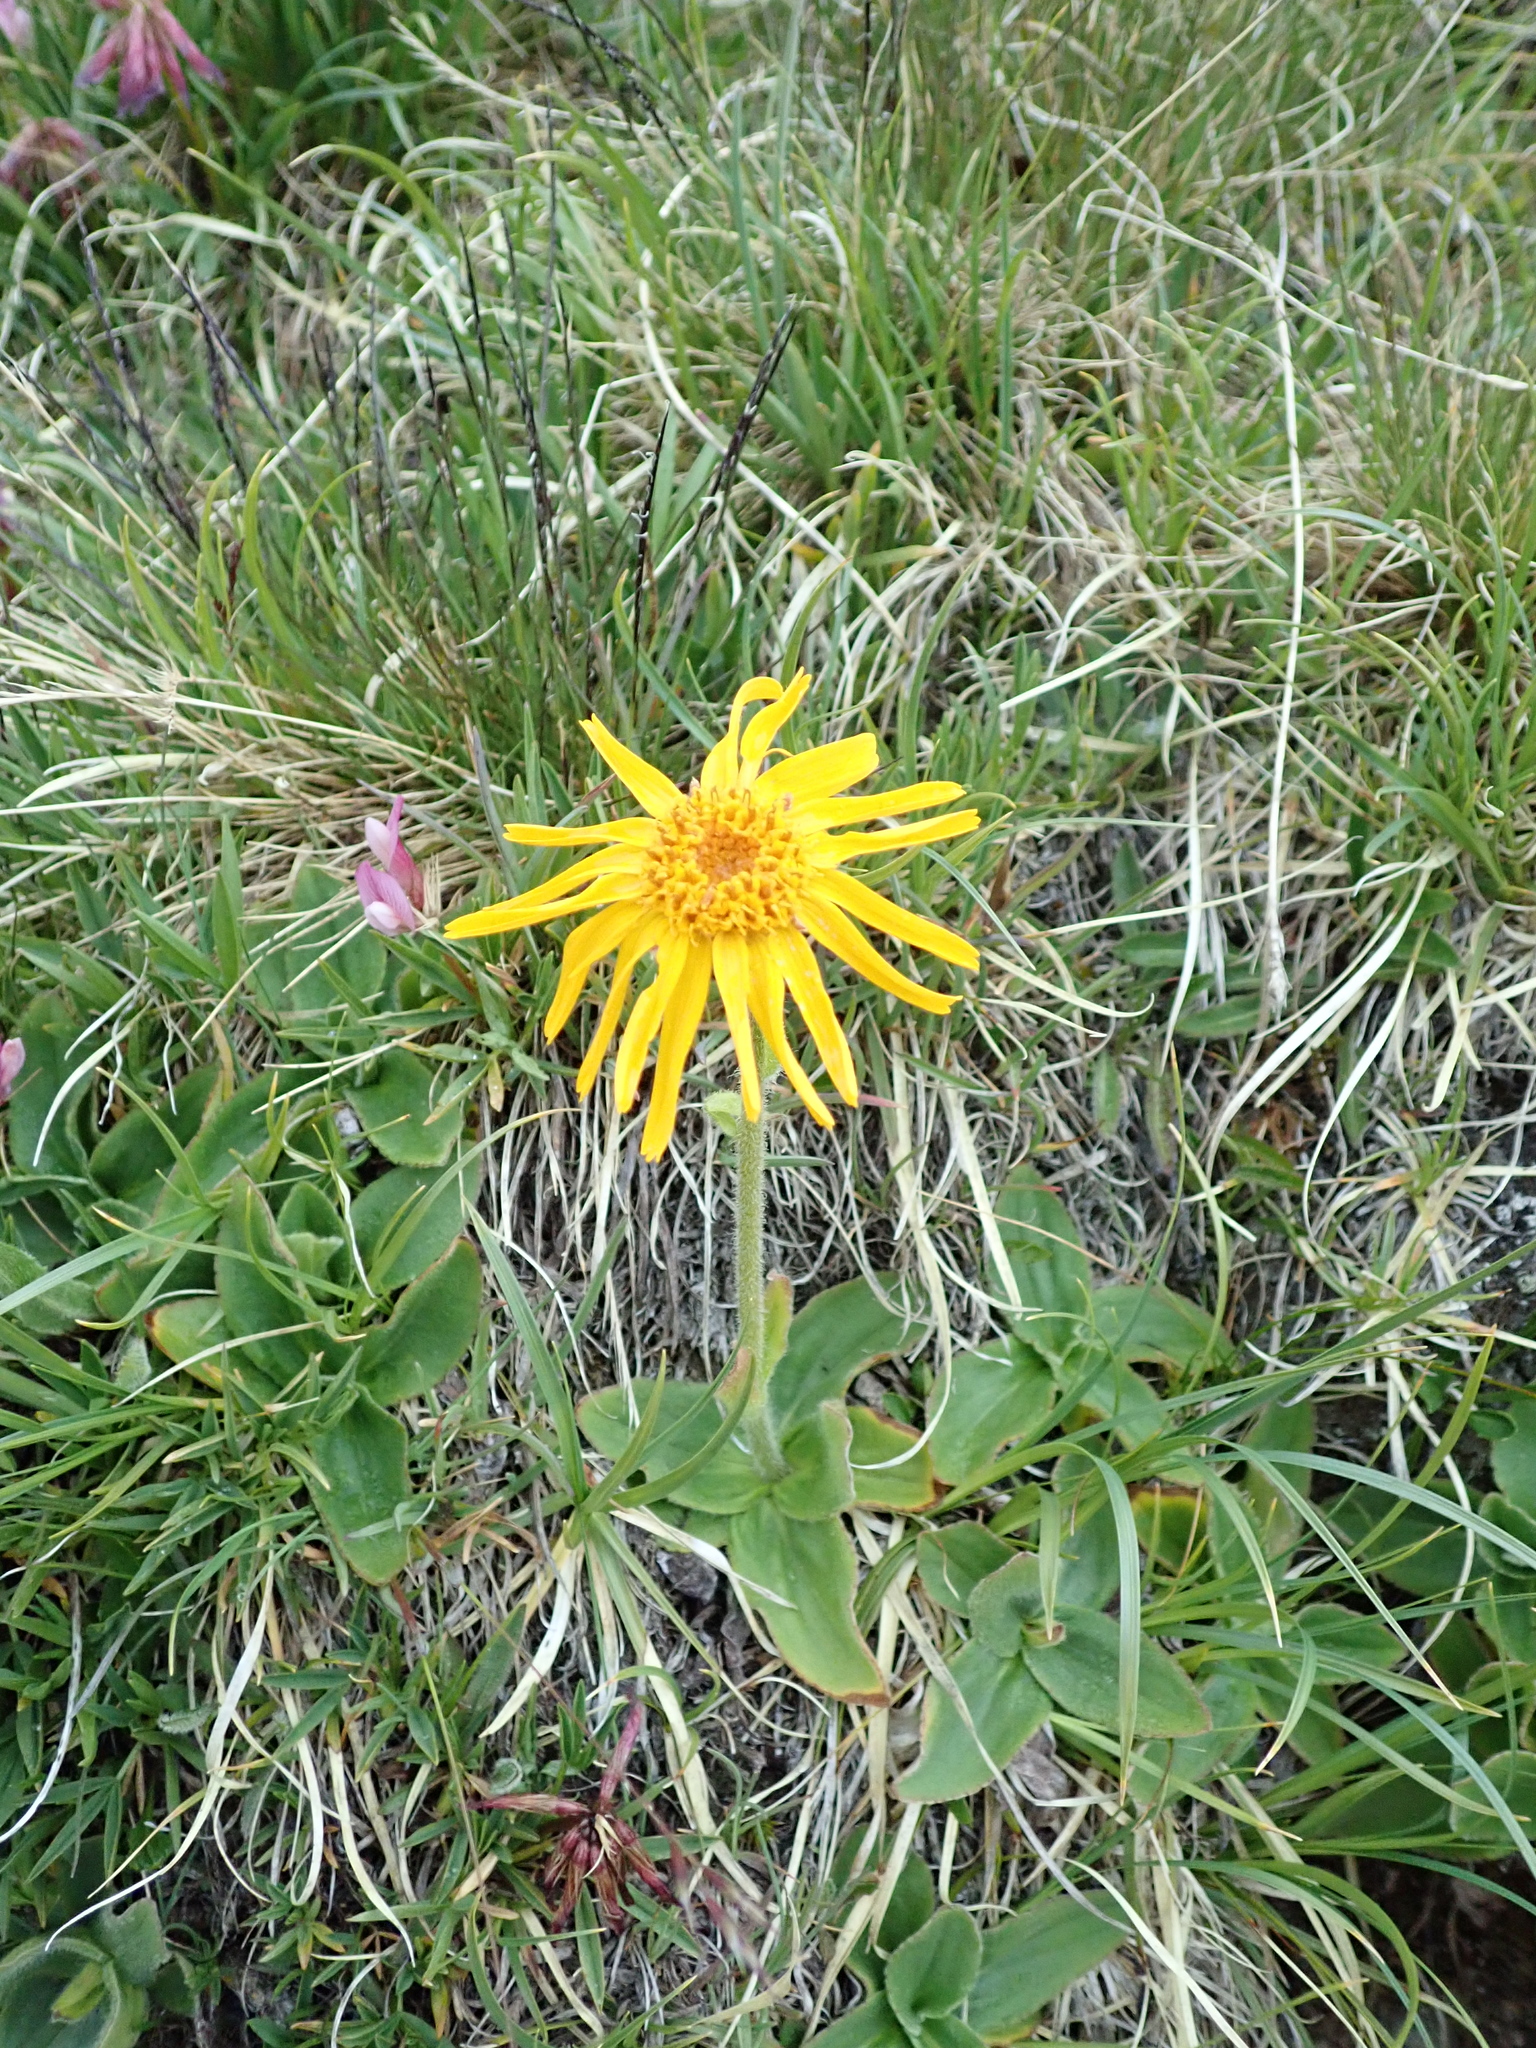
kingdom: Plantae
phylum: Tracheophyta
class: Magnoliopsida
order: Asterales
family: Asteraceae
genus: Arnica
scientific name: Arnica montana
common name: Leopard's bane
